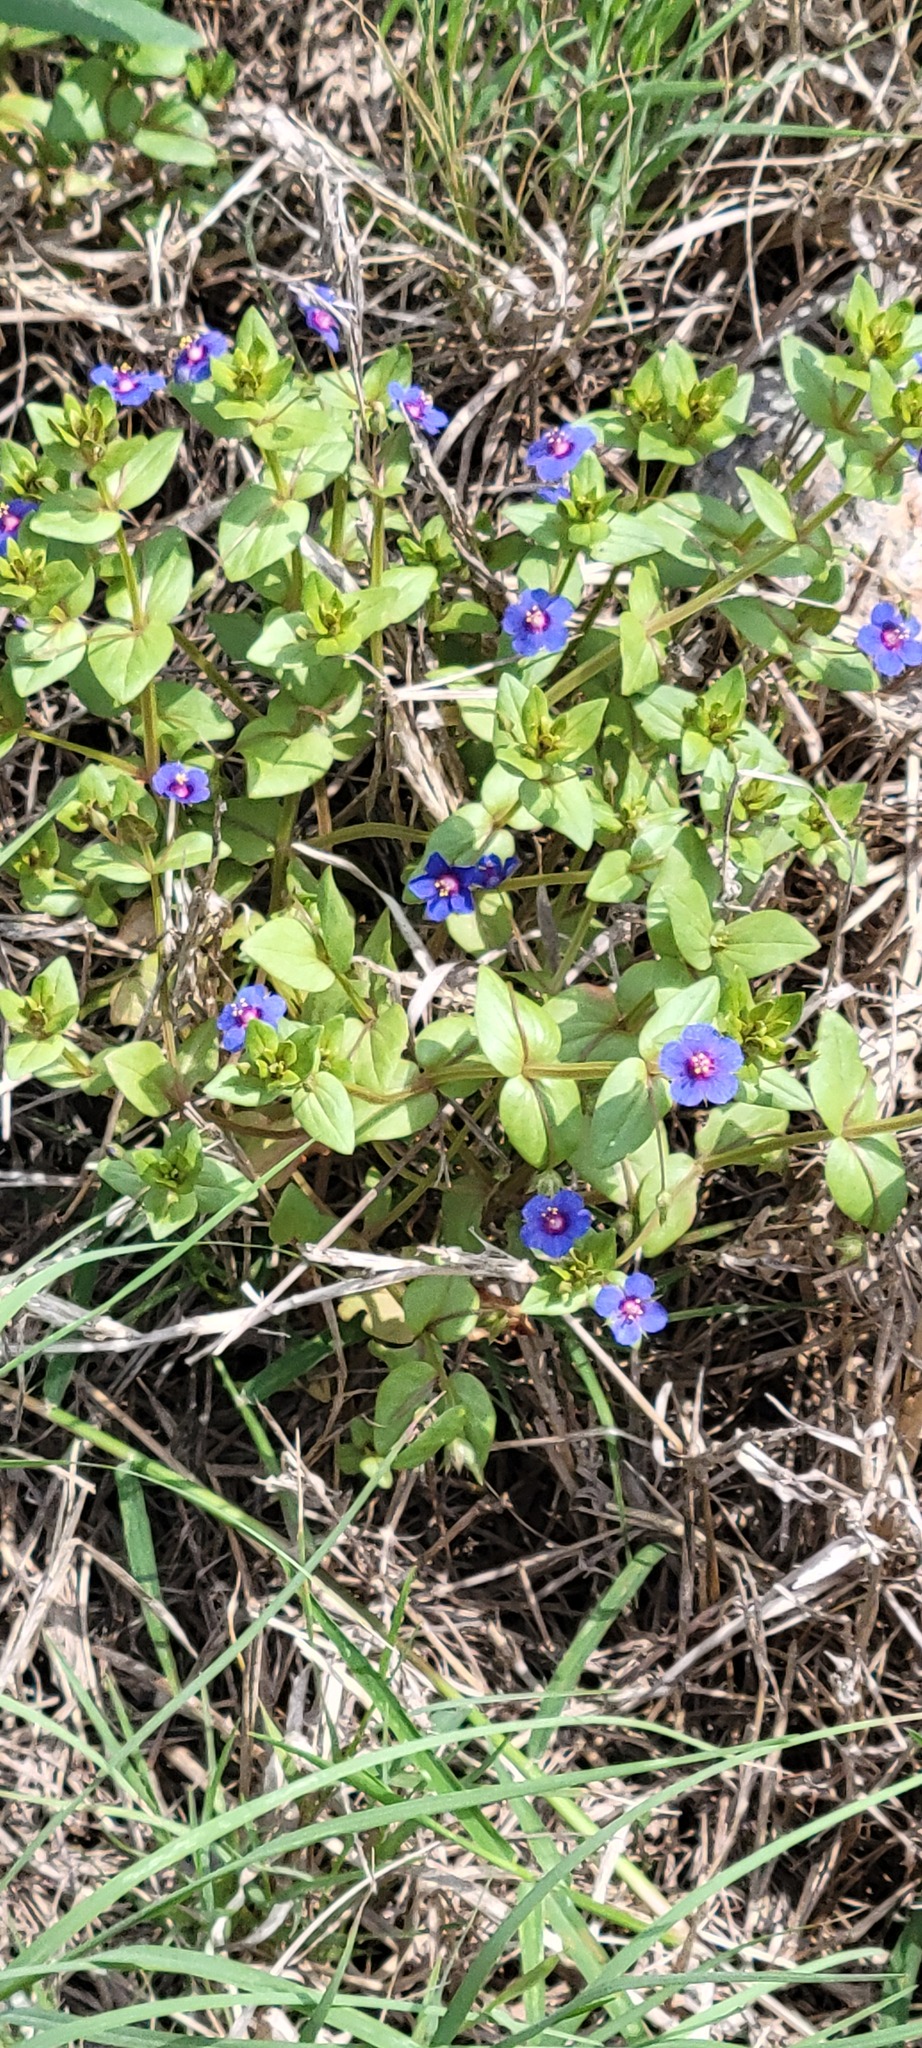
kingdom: Plantae
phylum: Tracheophyta
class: Magnoliopsida
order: Ericales
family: Primulaceae
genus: Lysimachia
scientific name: Lysimachia arvensis
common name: Scarlet pimpernel
